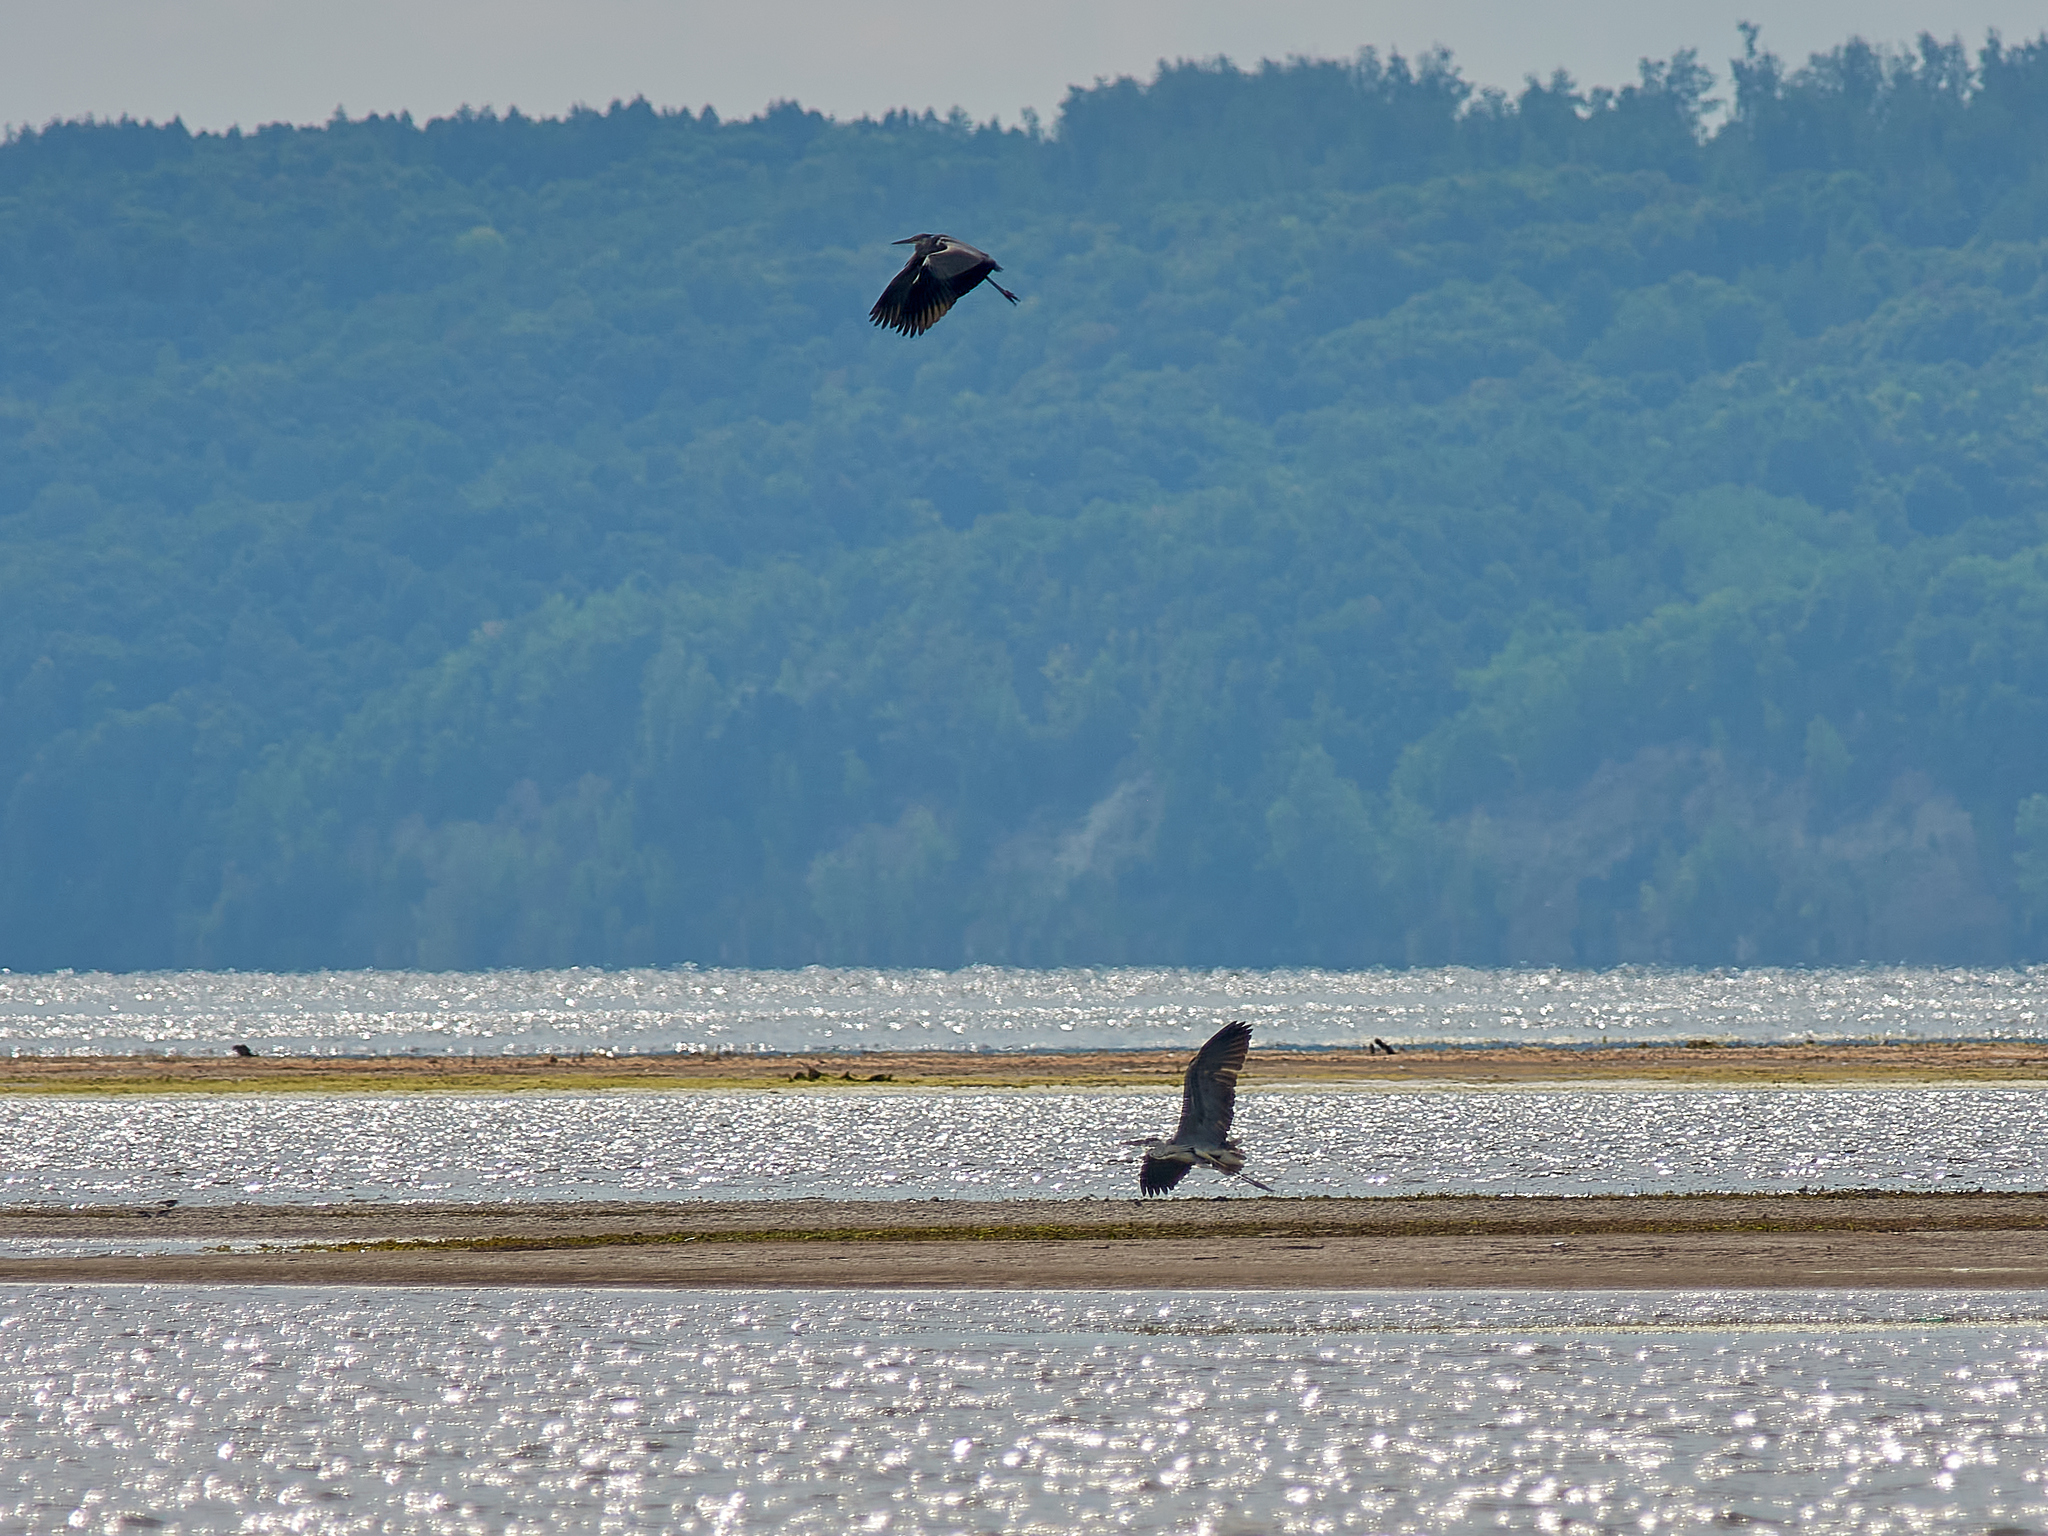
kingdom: Animalia
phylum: Chordata
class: Aves
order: Pelecaniformes
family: Ardeidae
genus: Ardea
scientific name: Ardea cinerea
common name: Grey heron
